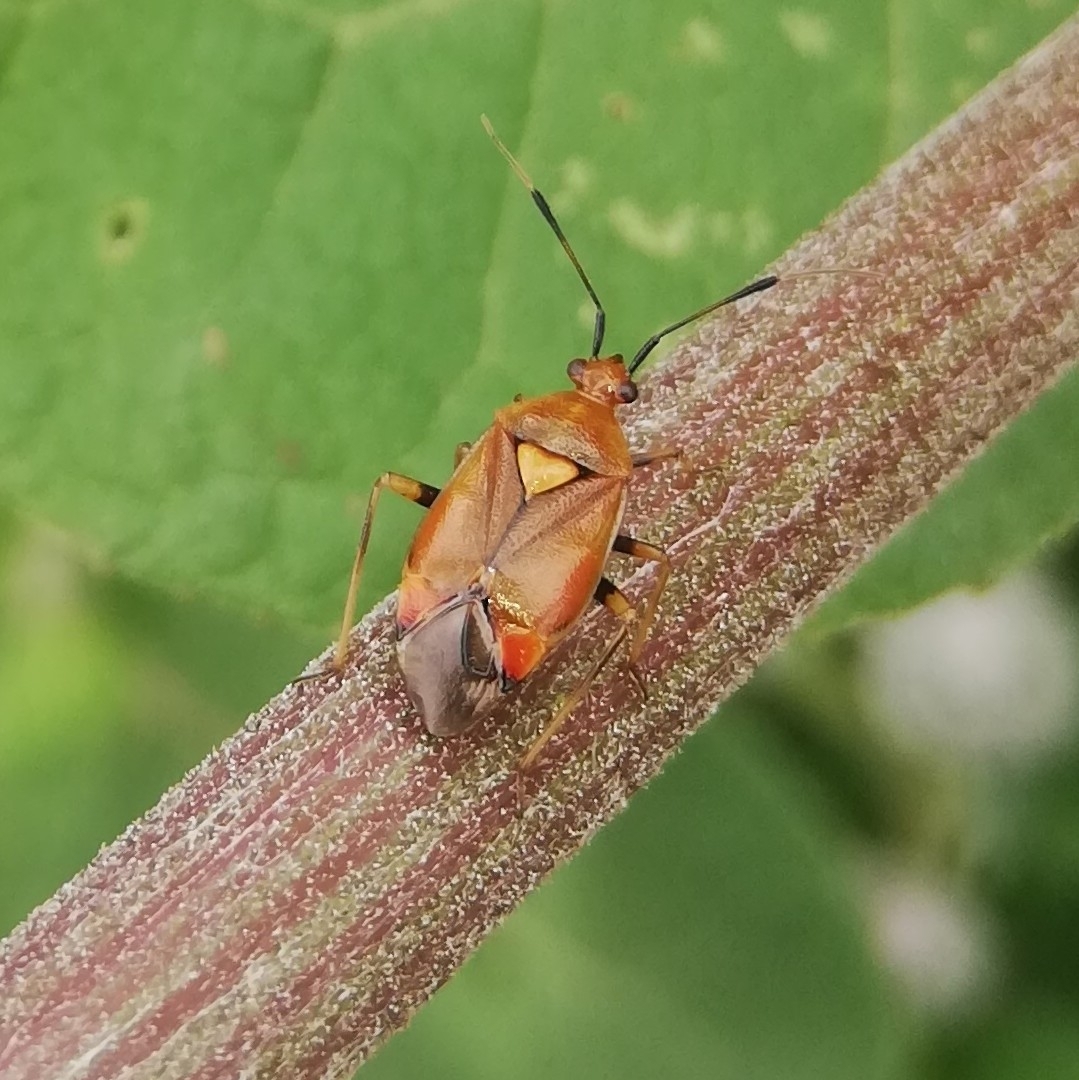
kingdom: Animalia
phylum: Arthropoda
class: Insecta
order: Hemiptera
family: Miridae
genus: Deraeocoris
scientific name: Deraeocoris ruber
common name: Plant bug
